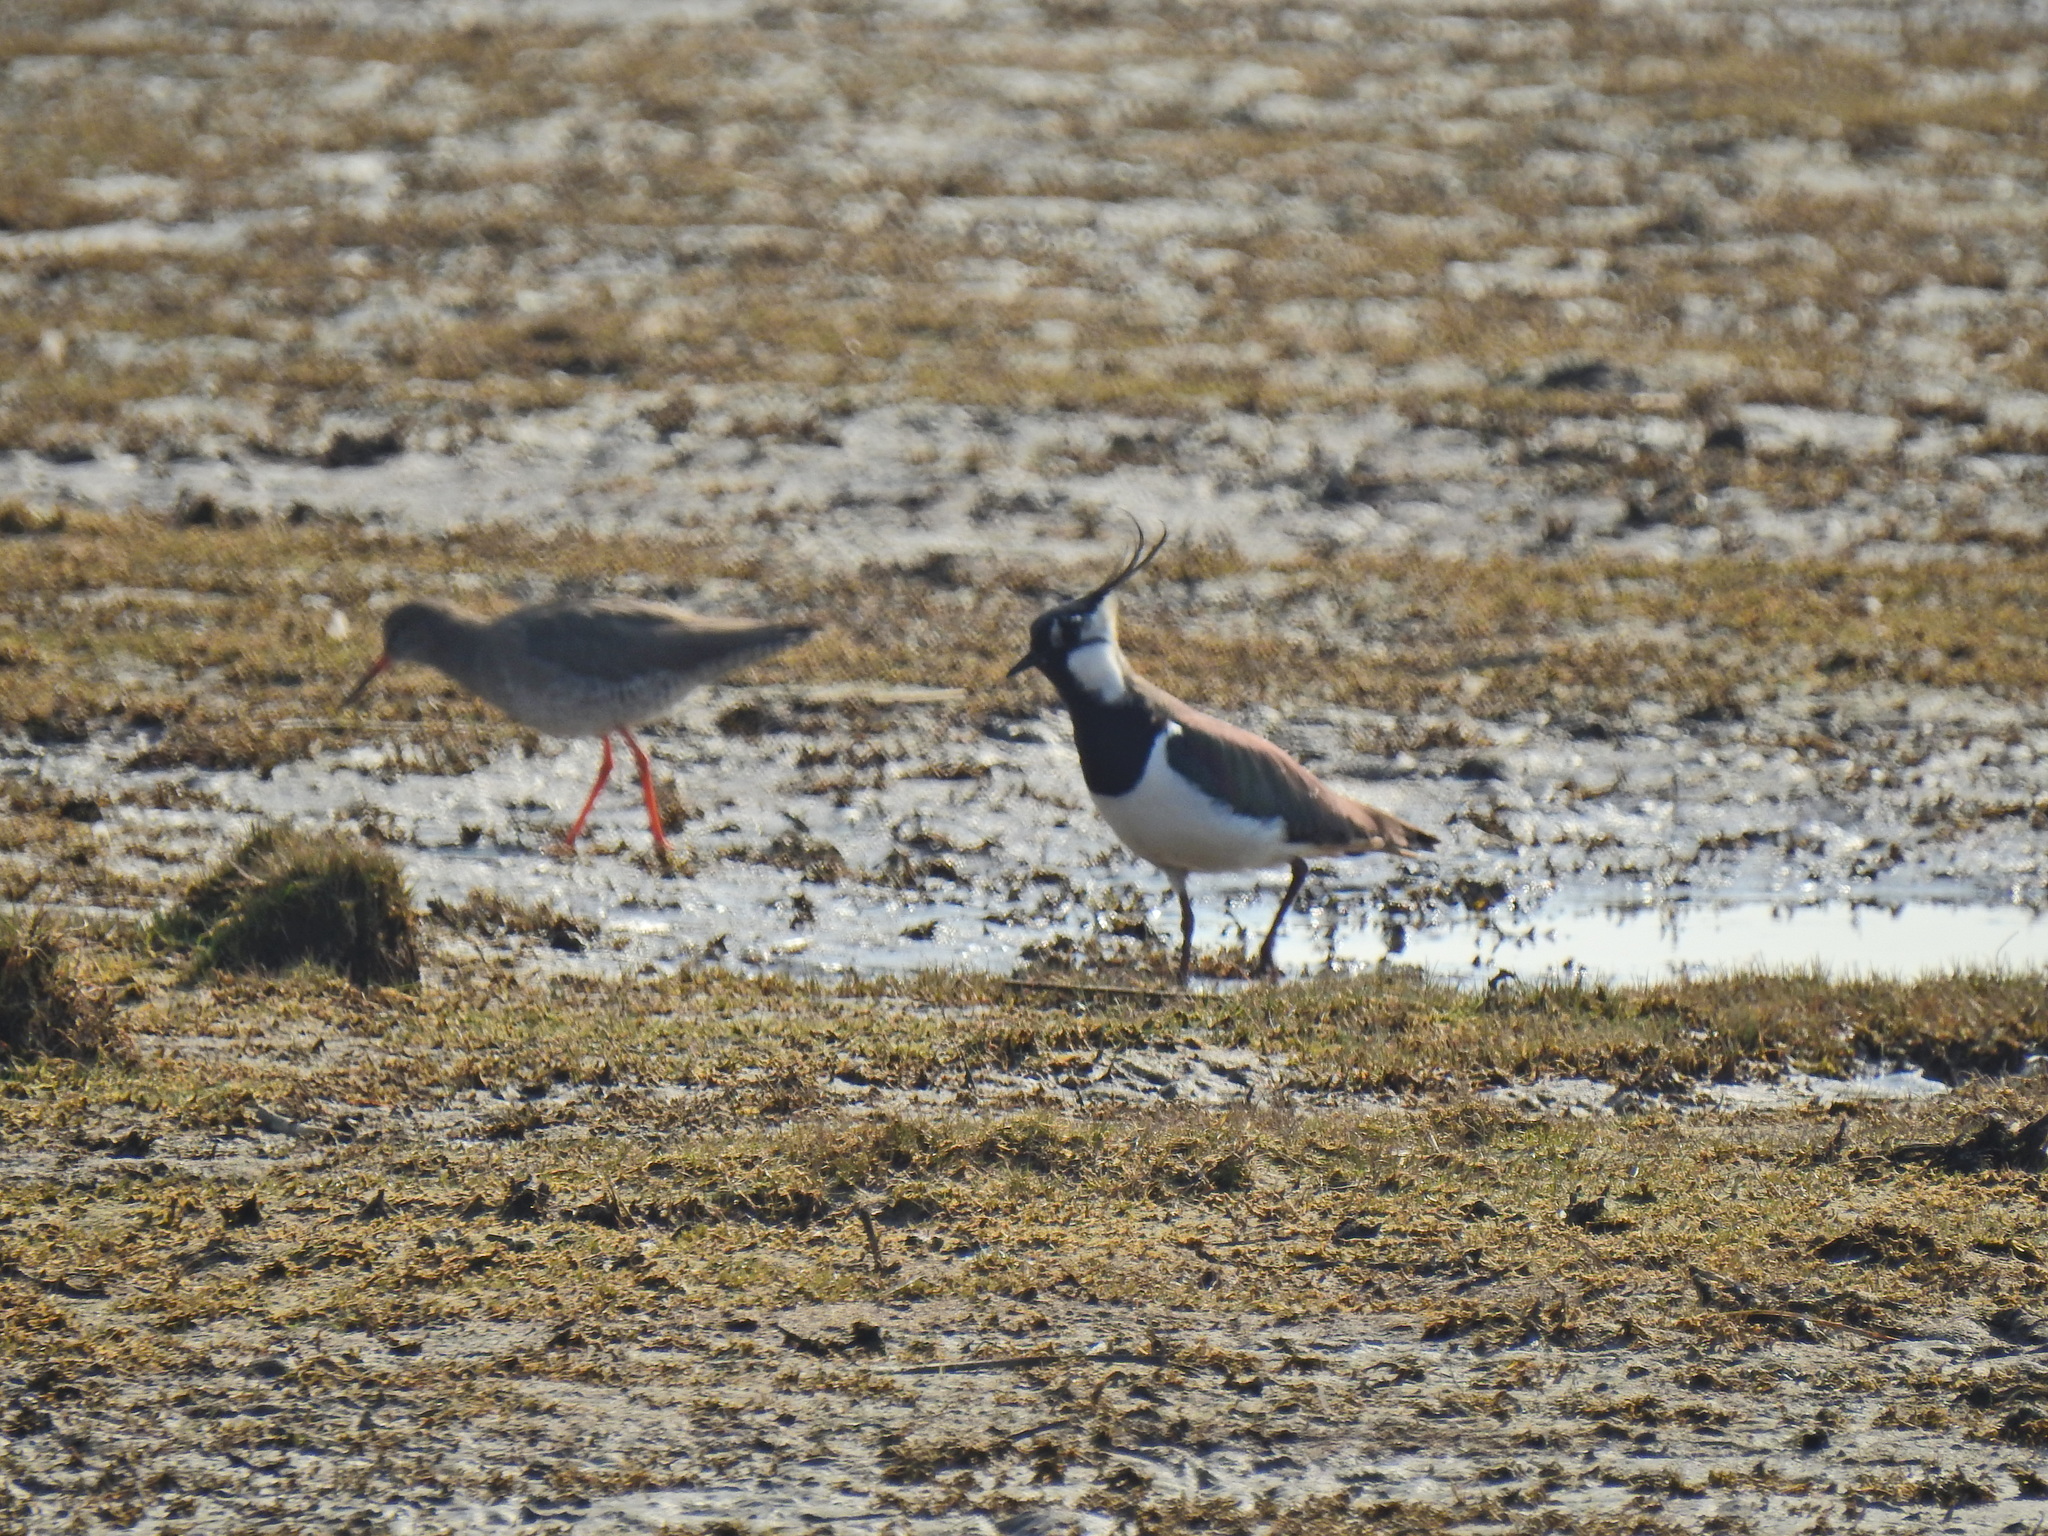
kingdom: Animalia
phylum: Chordata
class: Aves
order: Charadriiformes
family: Scolopacidae
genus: Tringa
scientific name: Tringa totanus
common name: Common redshank
